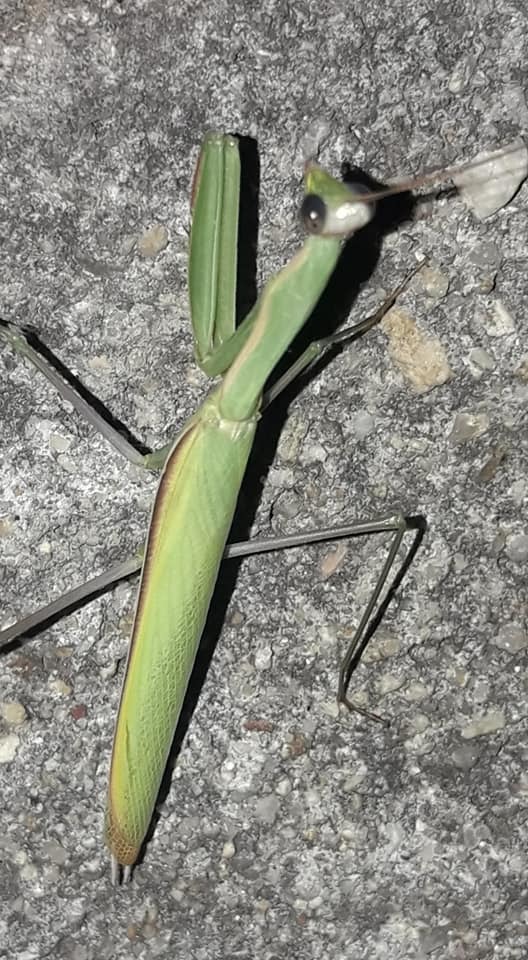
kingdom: Animalia
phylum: Arthropoda
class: Insecta
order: Mantodea
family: Mantidae
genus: Mantis
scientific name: Mantis religiosa
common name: Praying mantis
